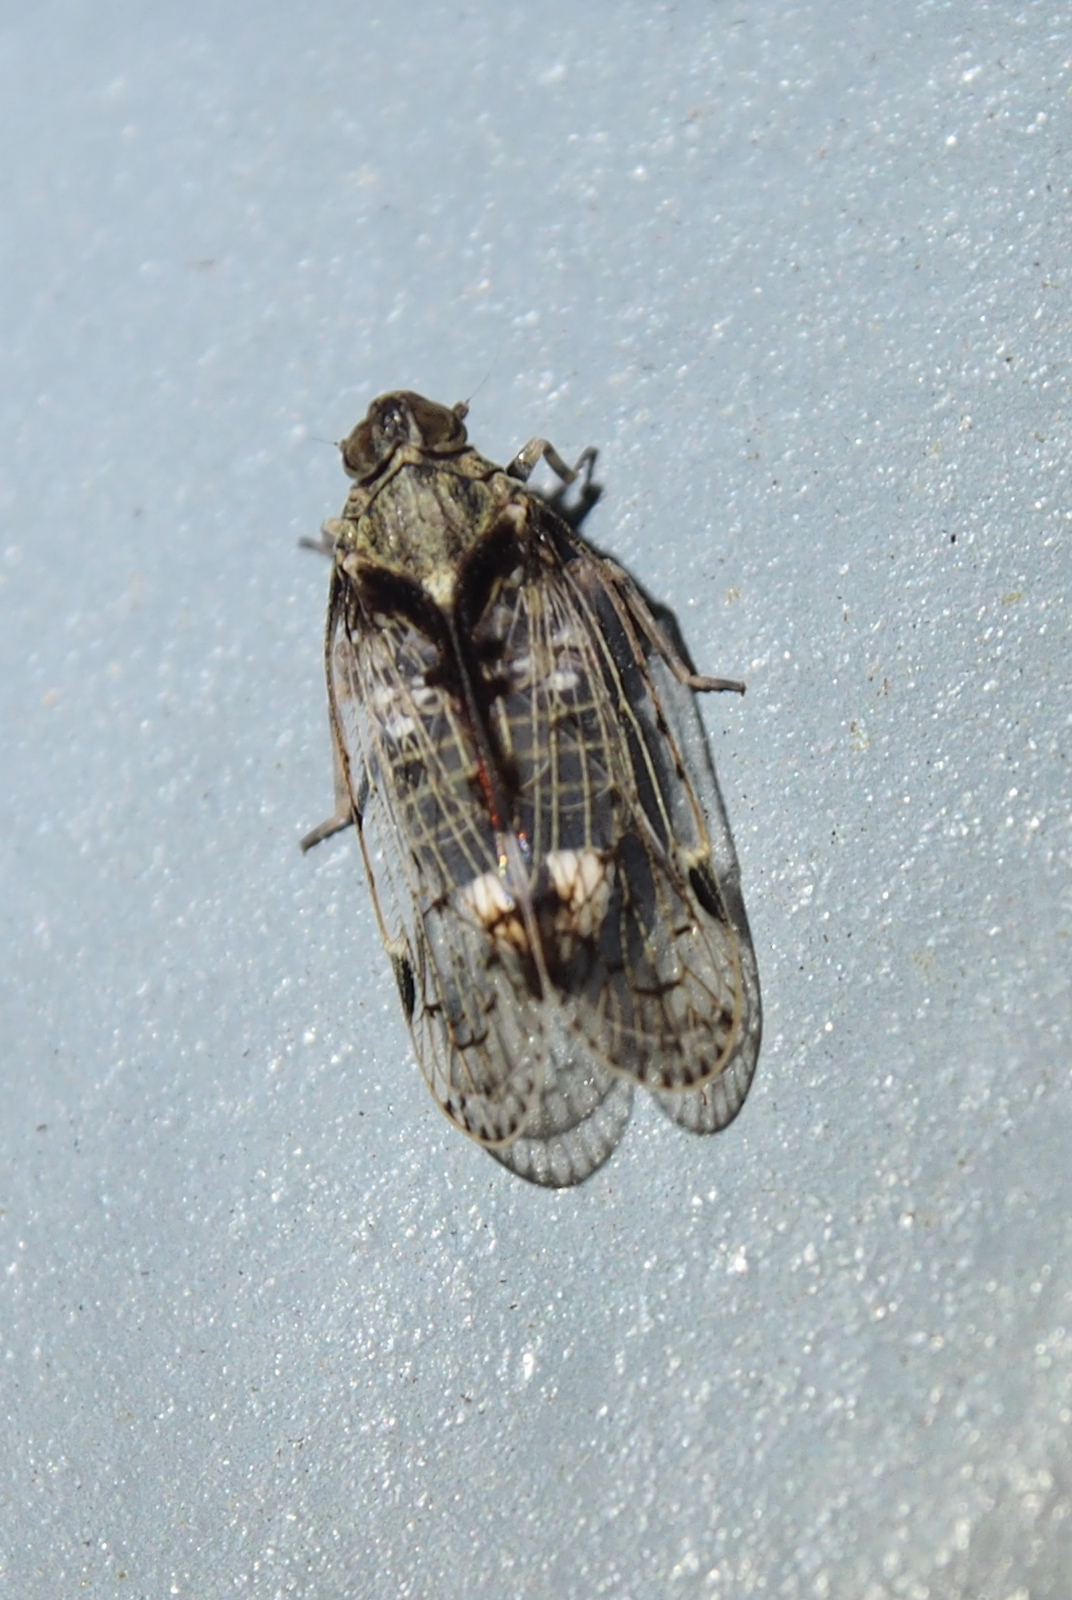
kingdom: Animalia
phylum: Arthropoda
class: Insecta
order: Hemiptera
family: Cixiidae
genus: Melanoliarus
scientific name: Melanoliarus placitus
